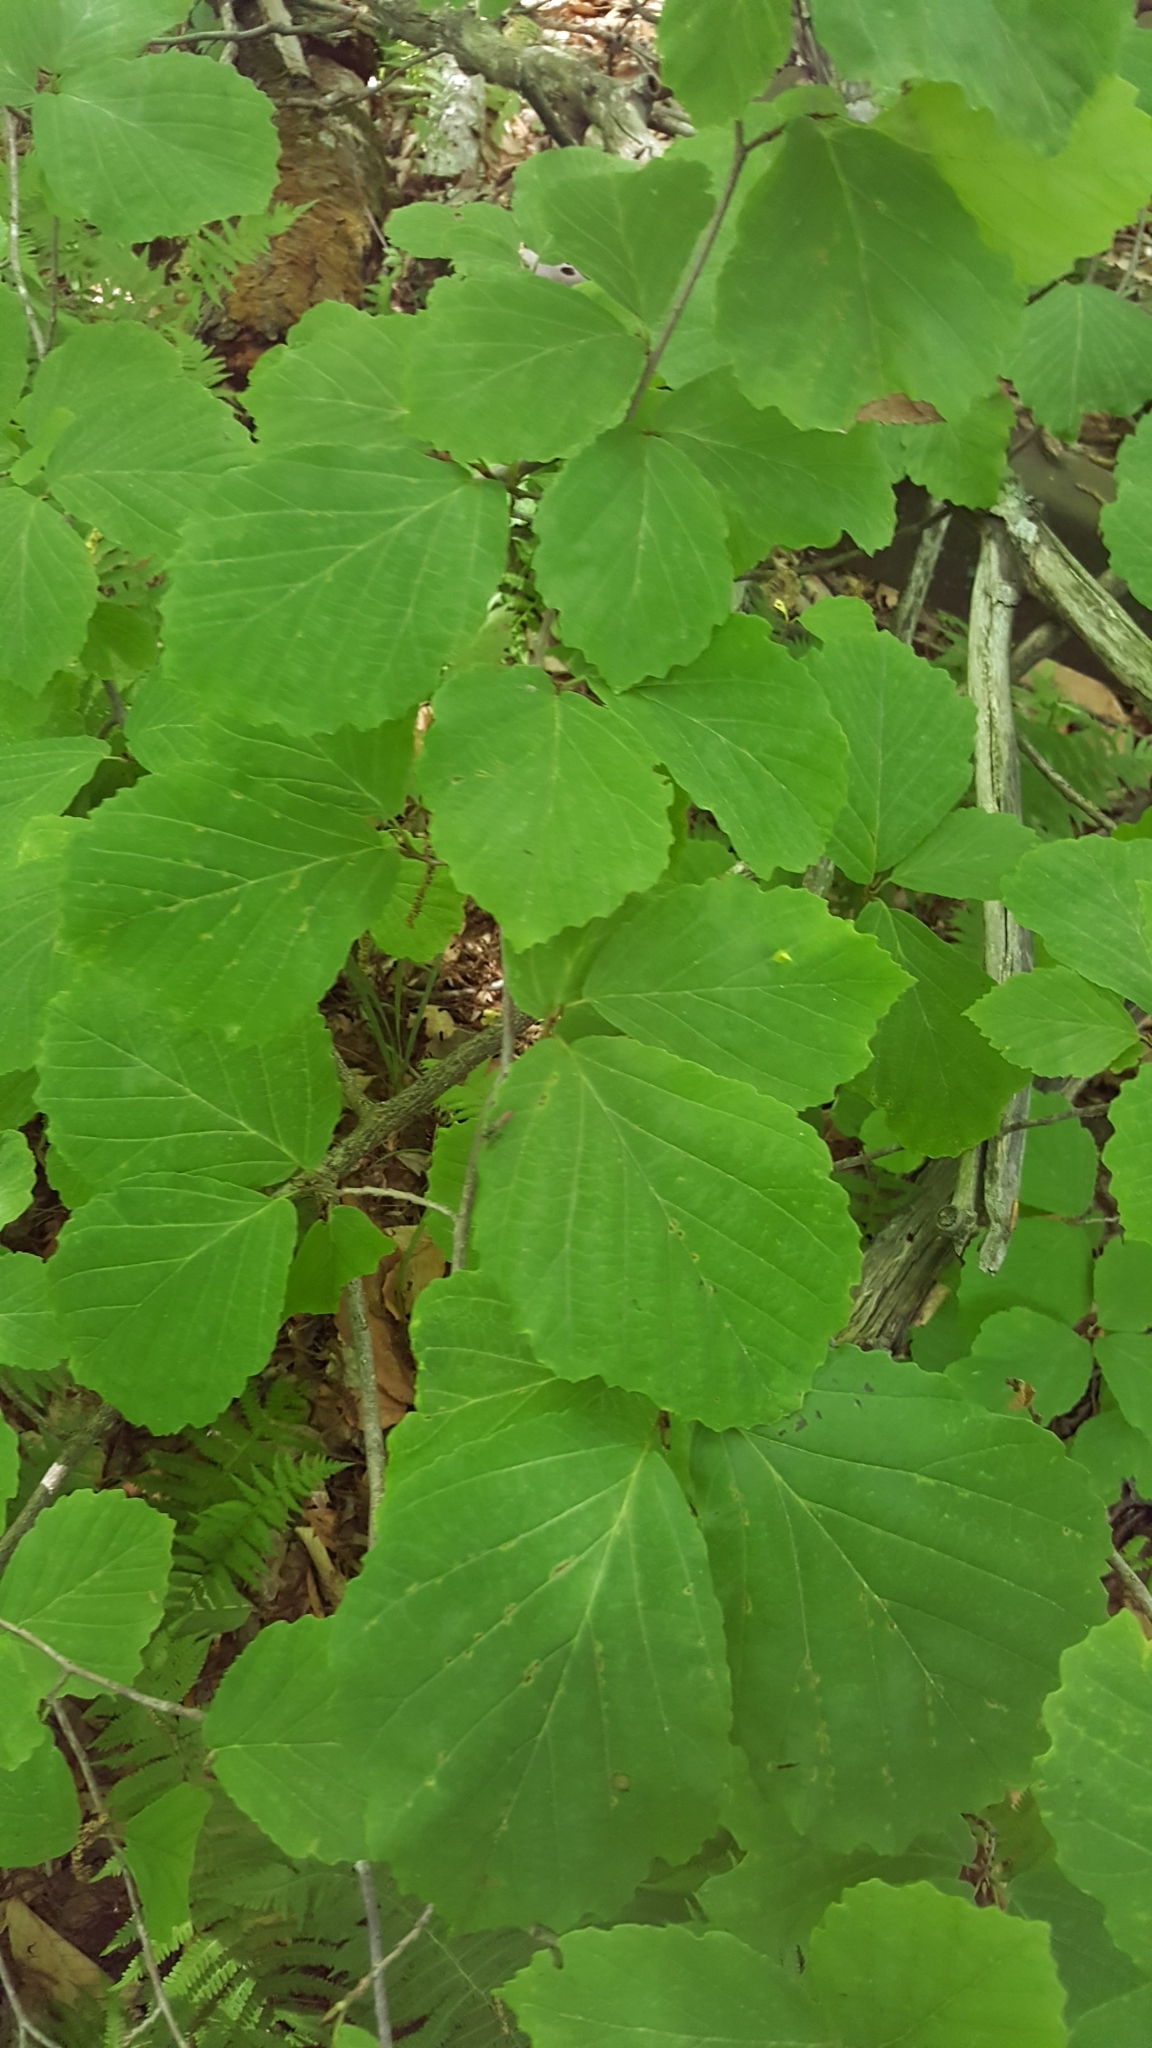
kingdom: Plantae
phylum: Tracheophyta
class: Magnoliopsida
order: Saxifragales
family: Hamamelidaceae
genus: Hamamelis
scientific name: Hamamelis virginiana
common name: Witch-hazel
